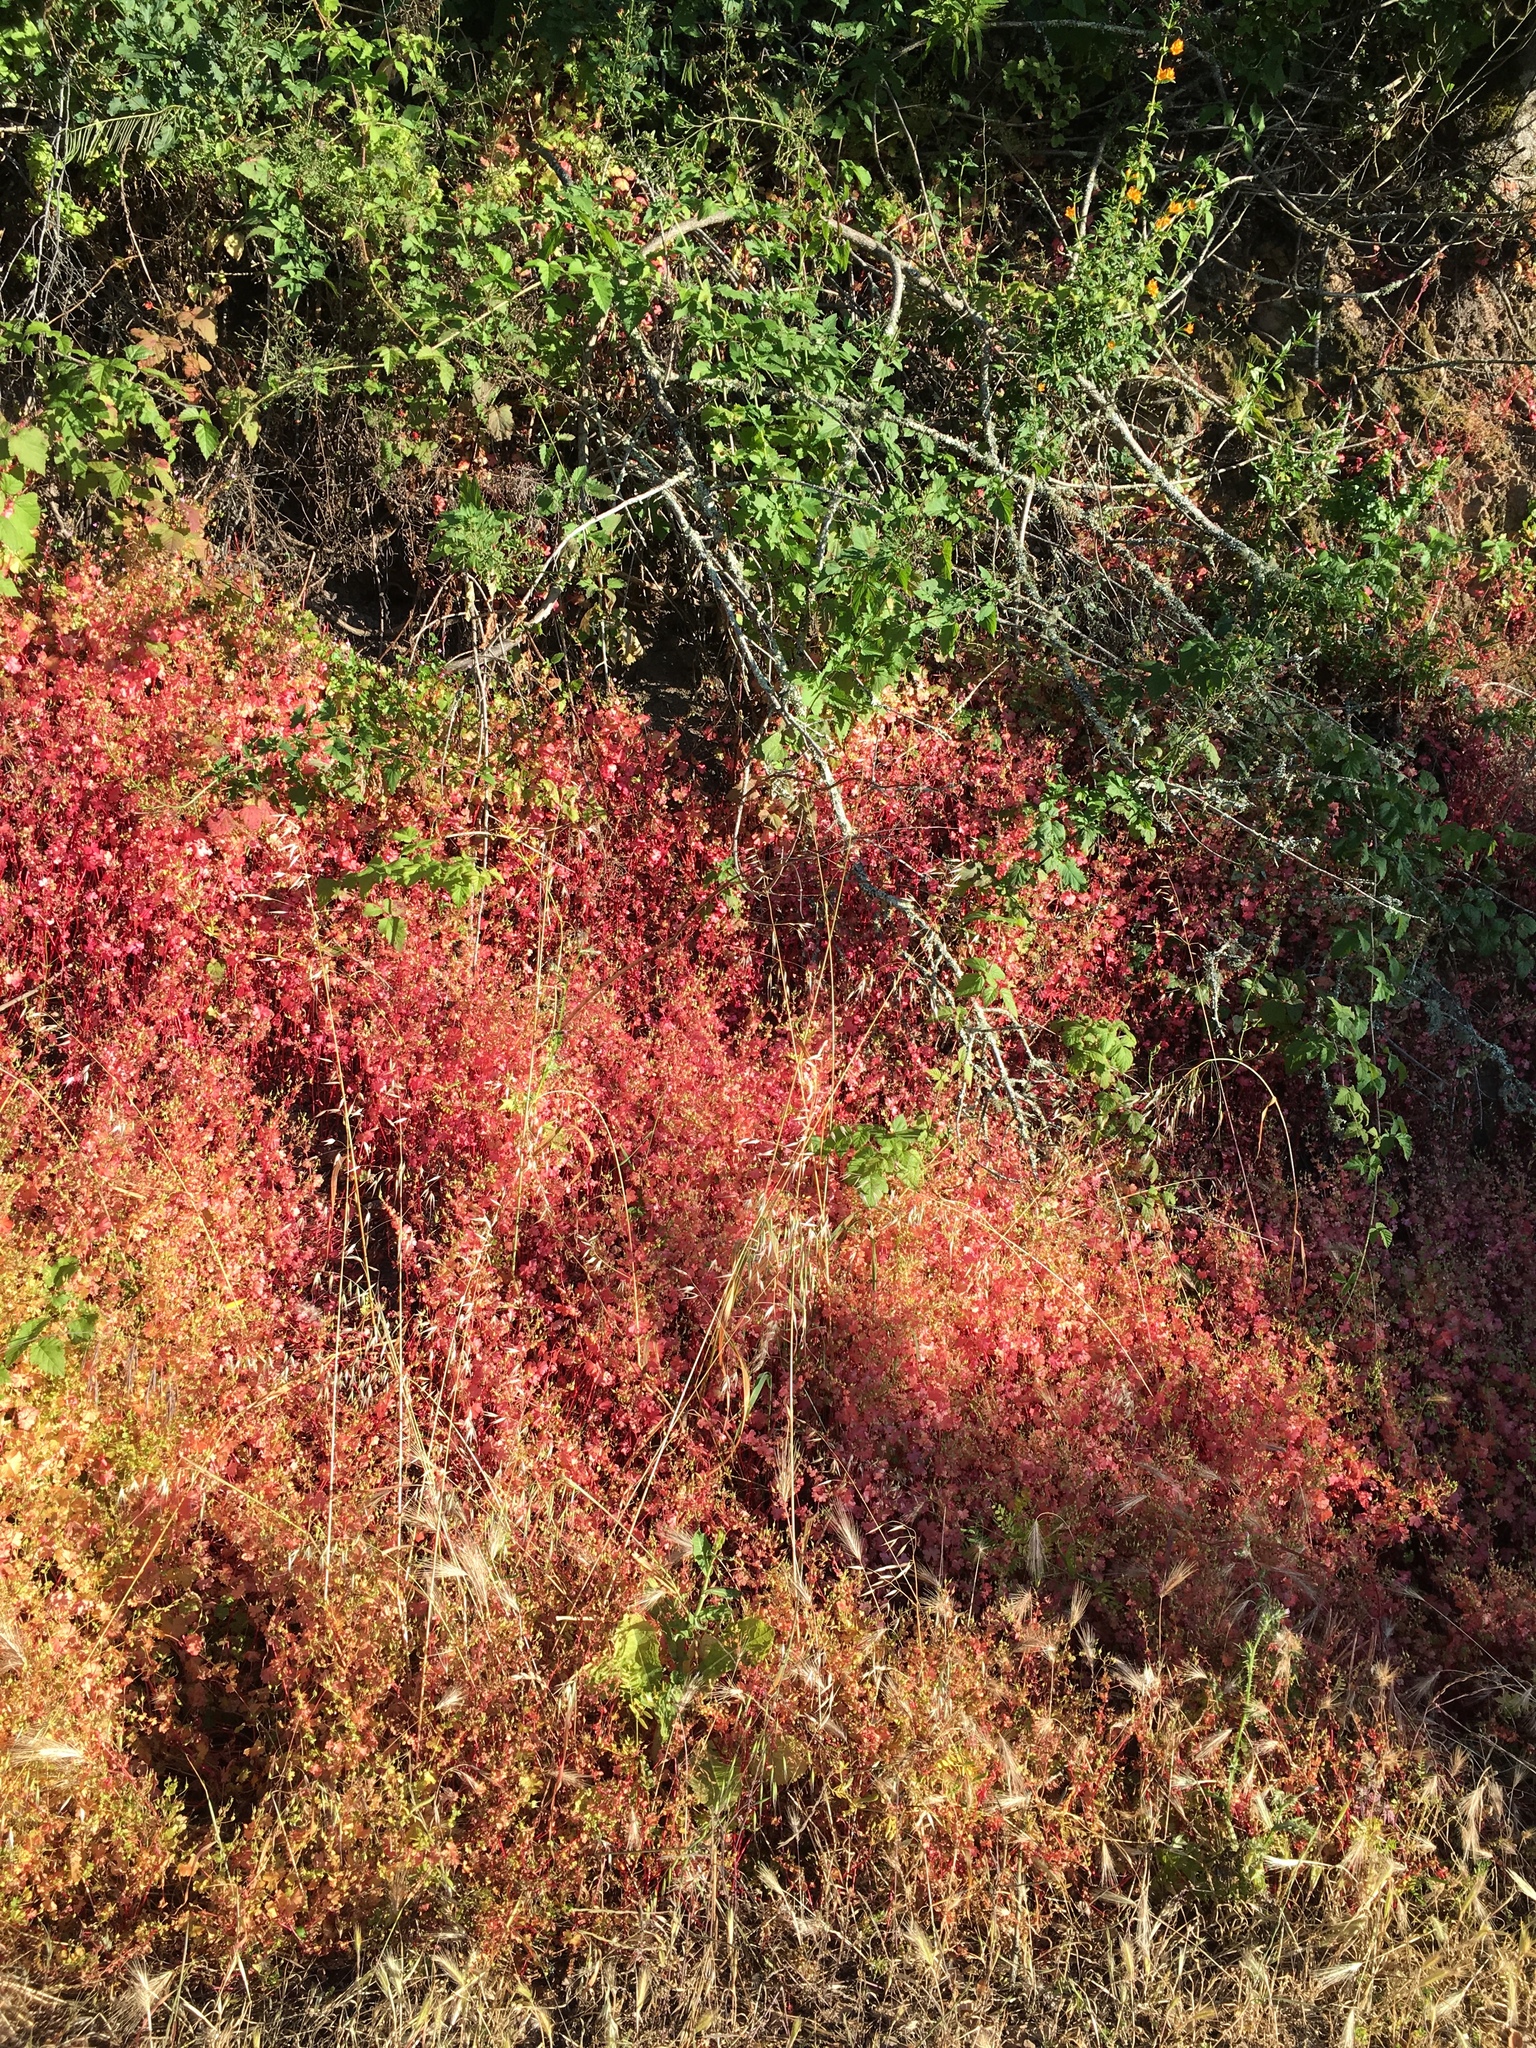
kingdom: Plantae
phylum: Tracheophyta
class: Magnoliopsida
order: Geraniales
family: Geraniaceae
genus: Geranium
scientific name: Geranium
